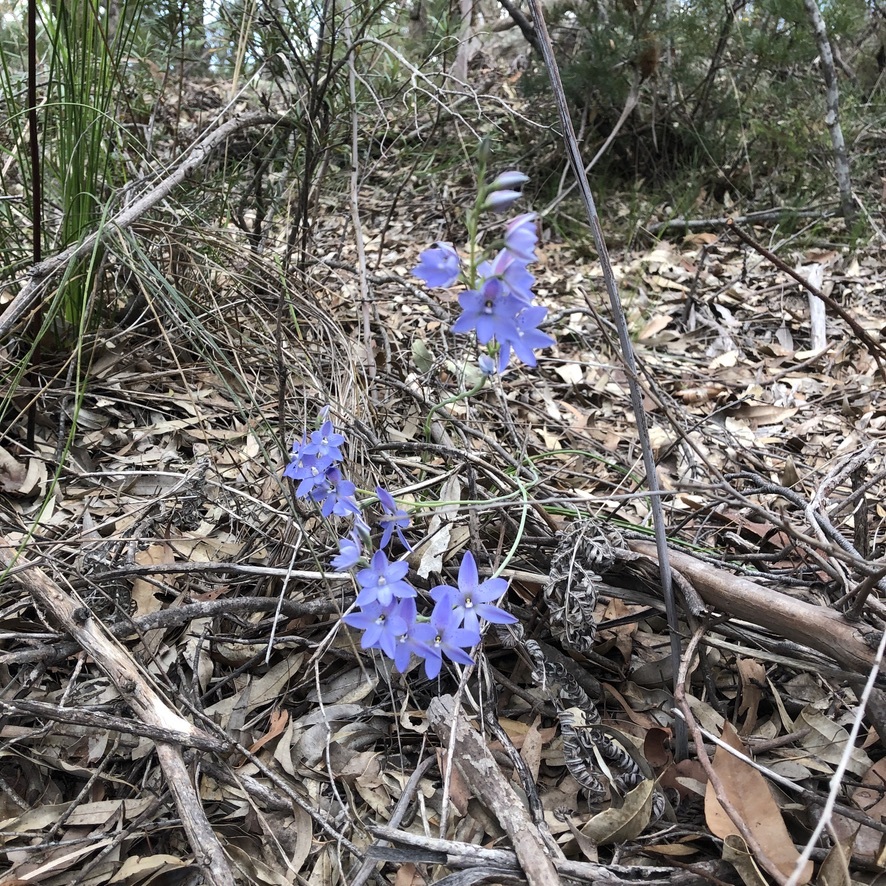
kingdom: Plantae
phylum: Tracheophyta
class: Liliopsida
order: Asparagales
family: Orchidaceae
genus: Thelymitra
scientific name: Thelymitra ixioides
